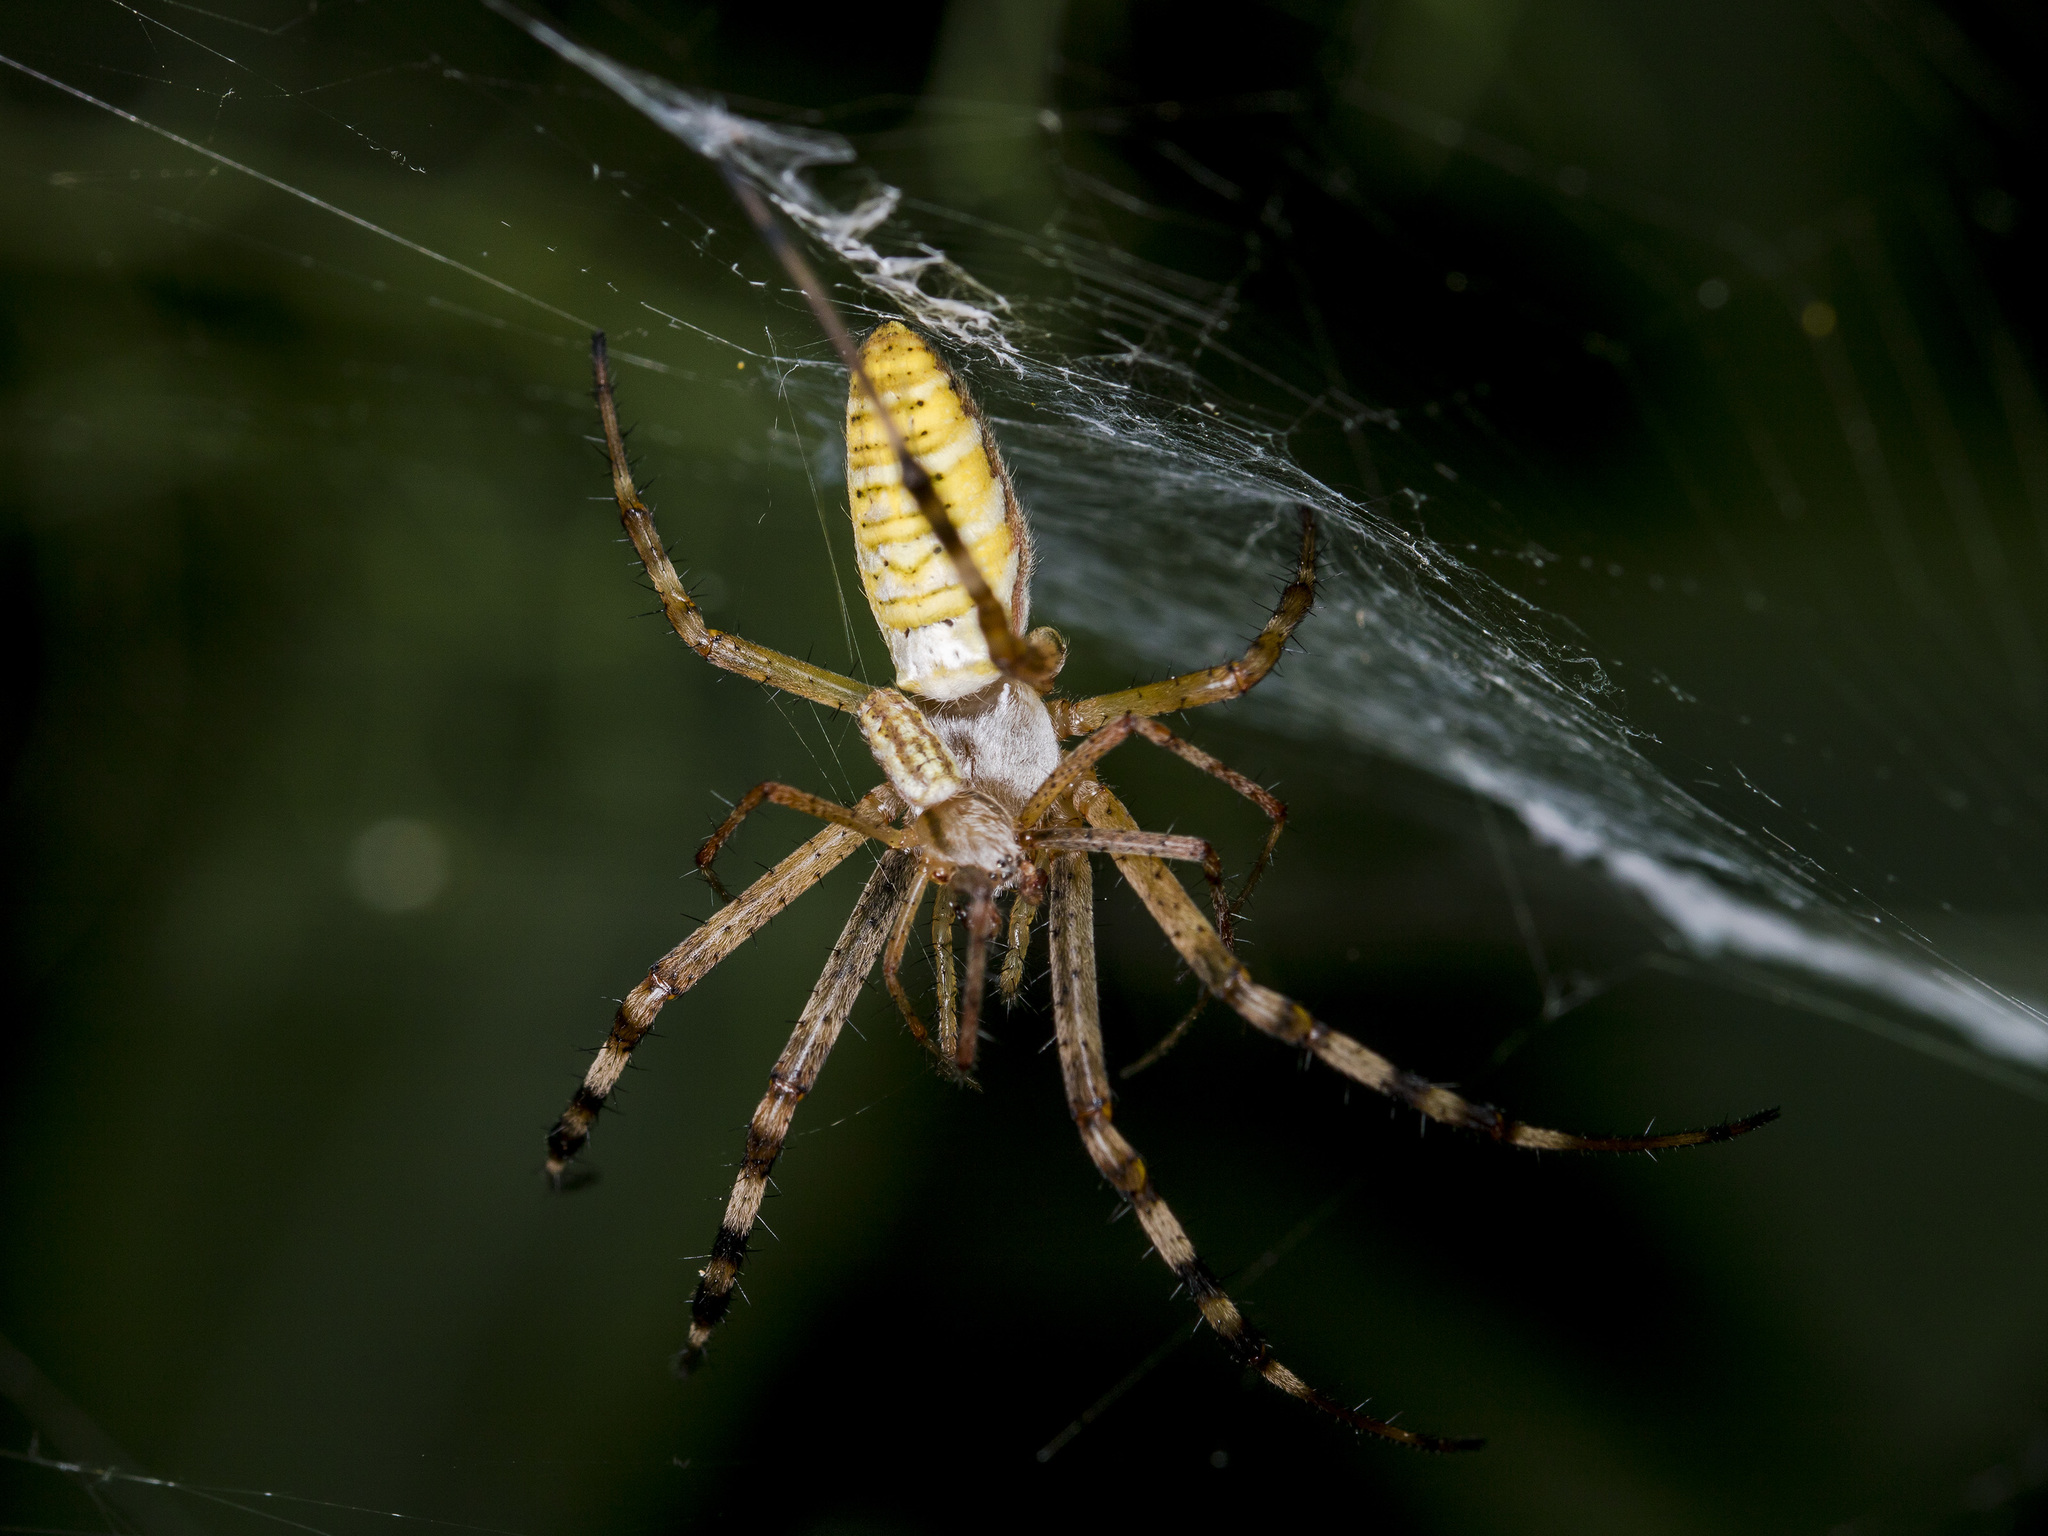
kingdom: Animalia
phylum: Arthropoda
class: Arachnida
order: Araneae
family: Araneidae
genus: Argiope
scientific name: Argiope bruennichi
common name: Wasp spider
